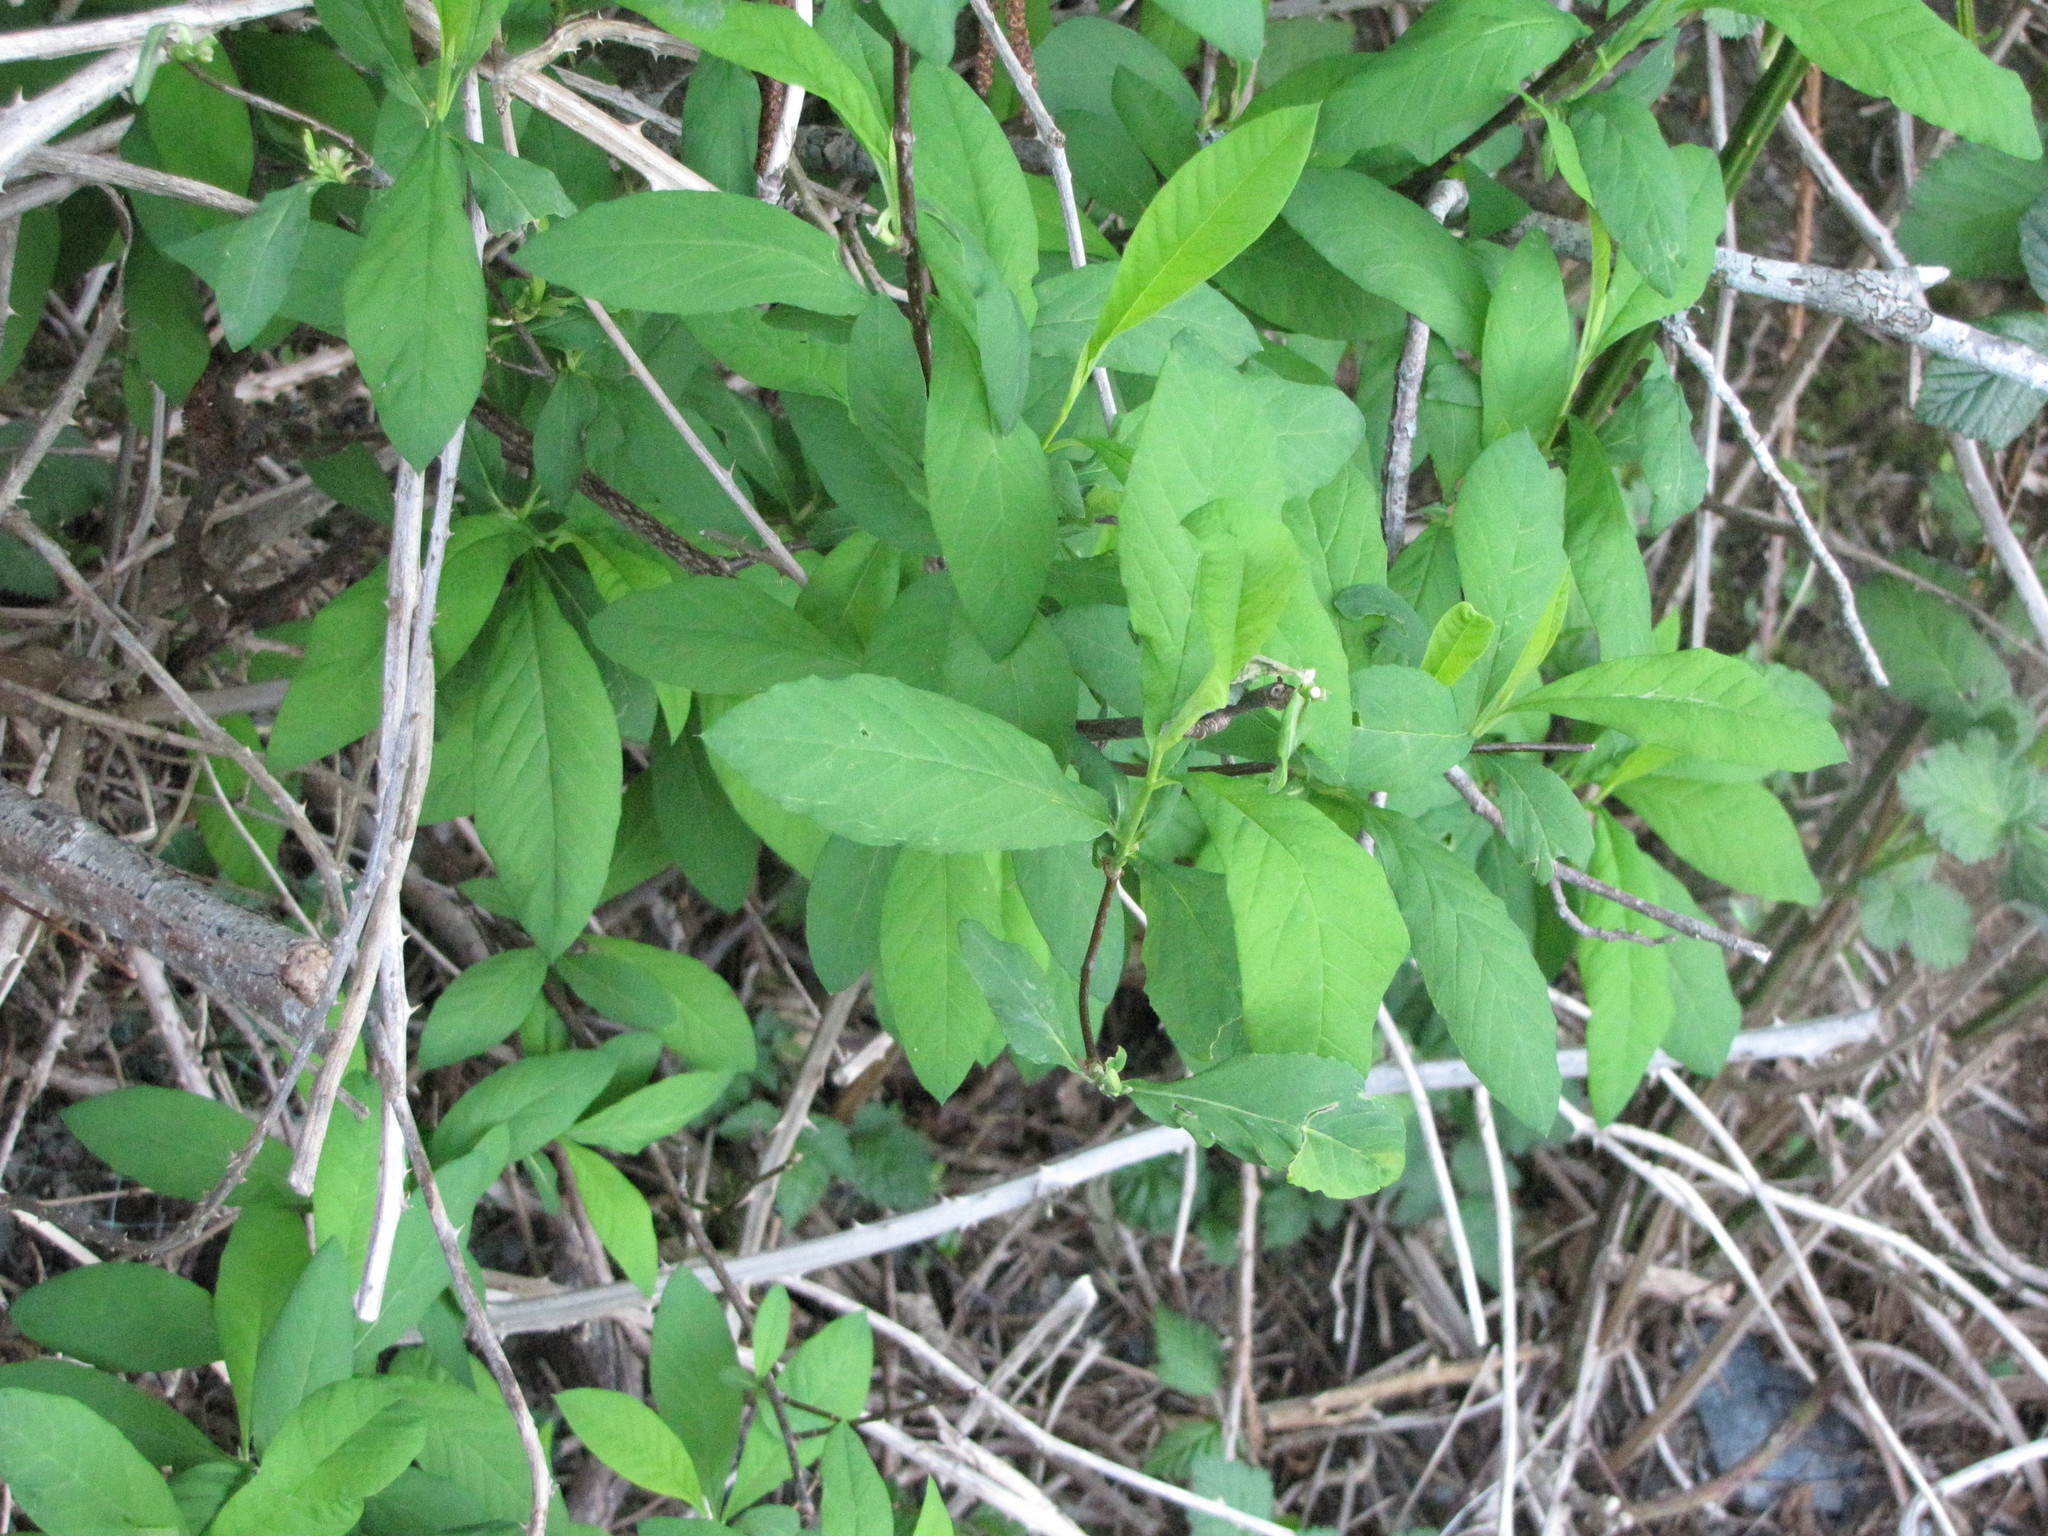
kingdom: Plantae
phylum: Tracheophyta
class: Magnoliopsida
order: Rosales
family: Rosaceae
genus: Oemleria
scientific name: Oemleria cerasiformis
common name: Osoberry
